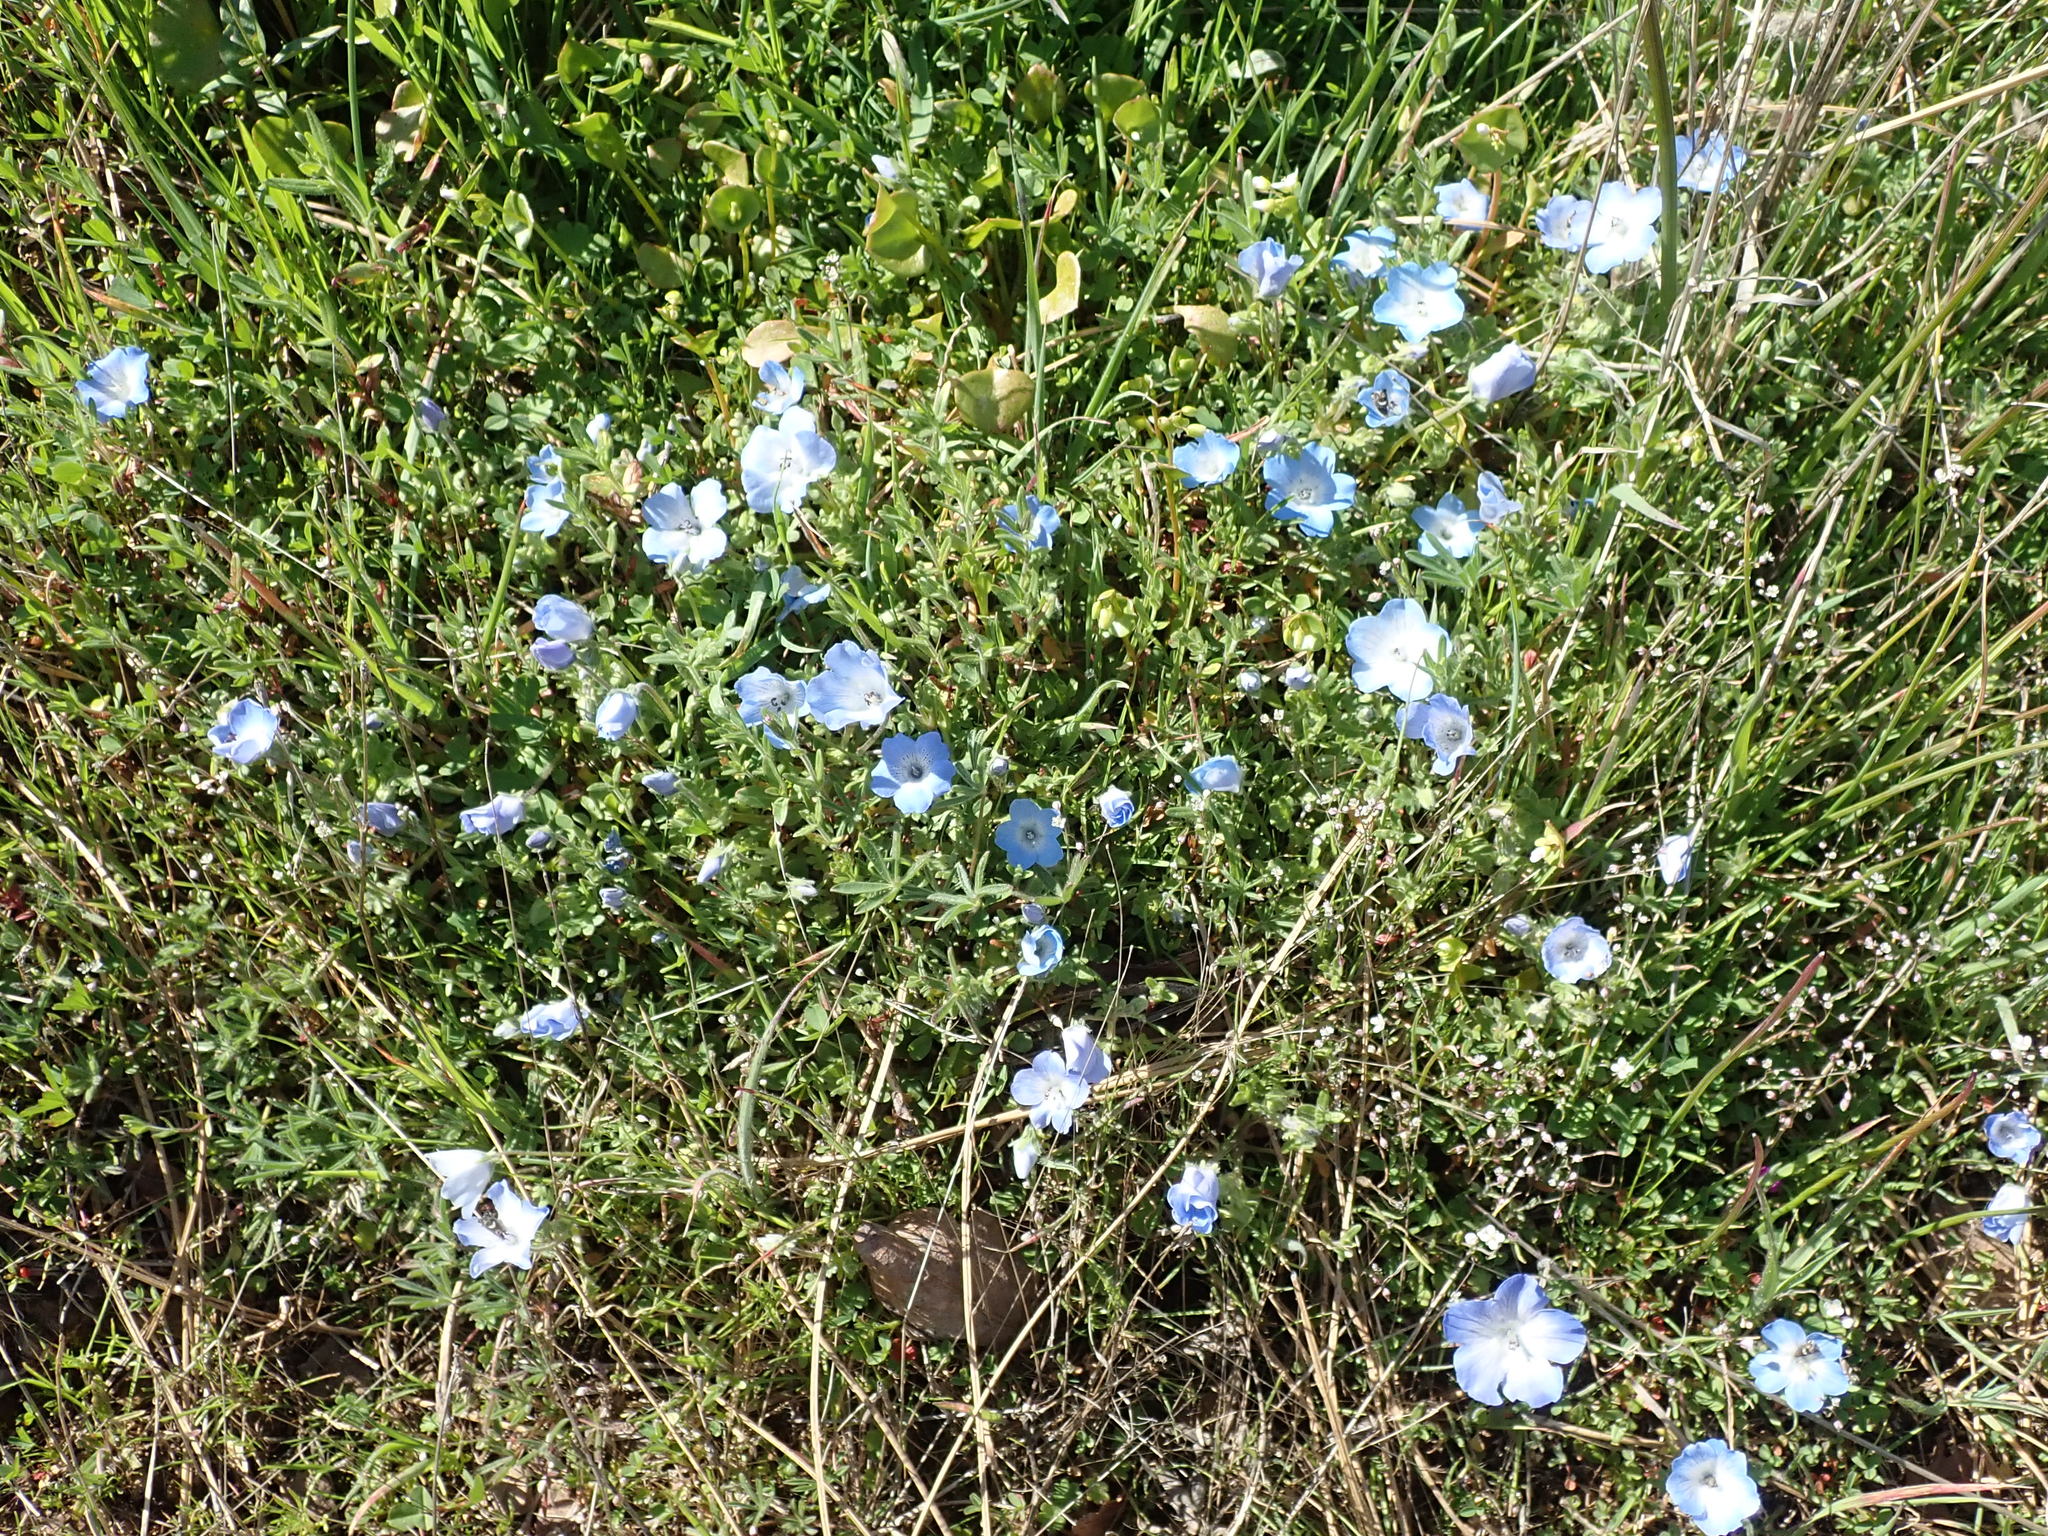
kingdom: Plantae
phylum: Tracheophyta
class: Magnoliopsida
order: Boraginales
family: Hydrophyllaceae
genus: Nemophila
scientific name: Nemophila menziesii
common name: Baby's-blue-eyes
